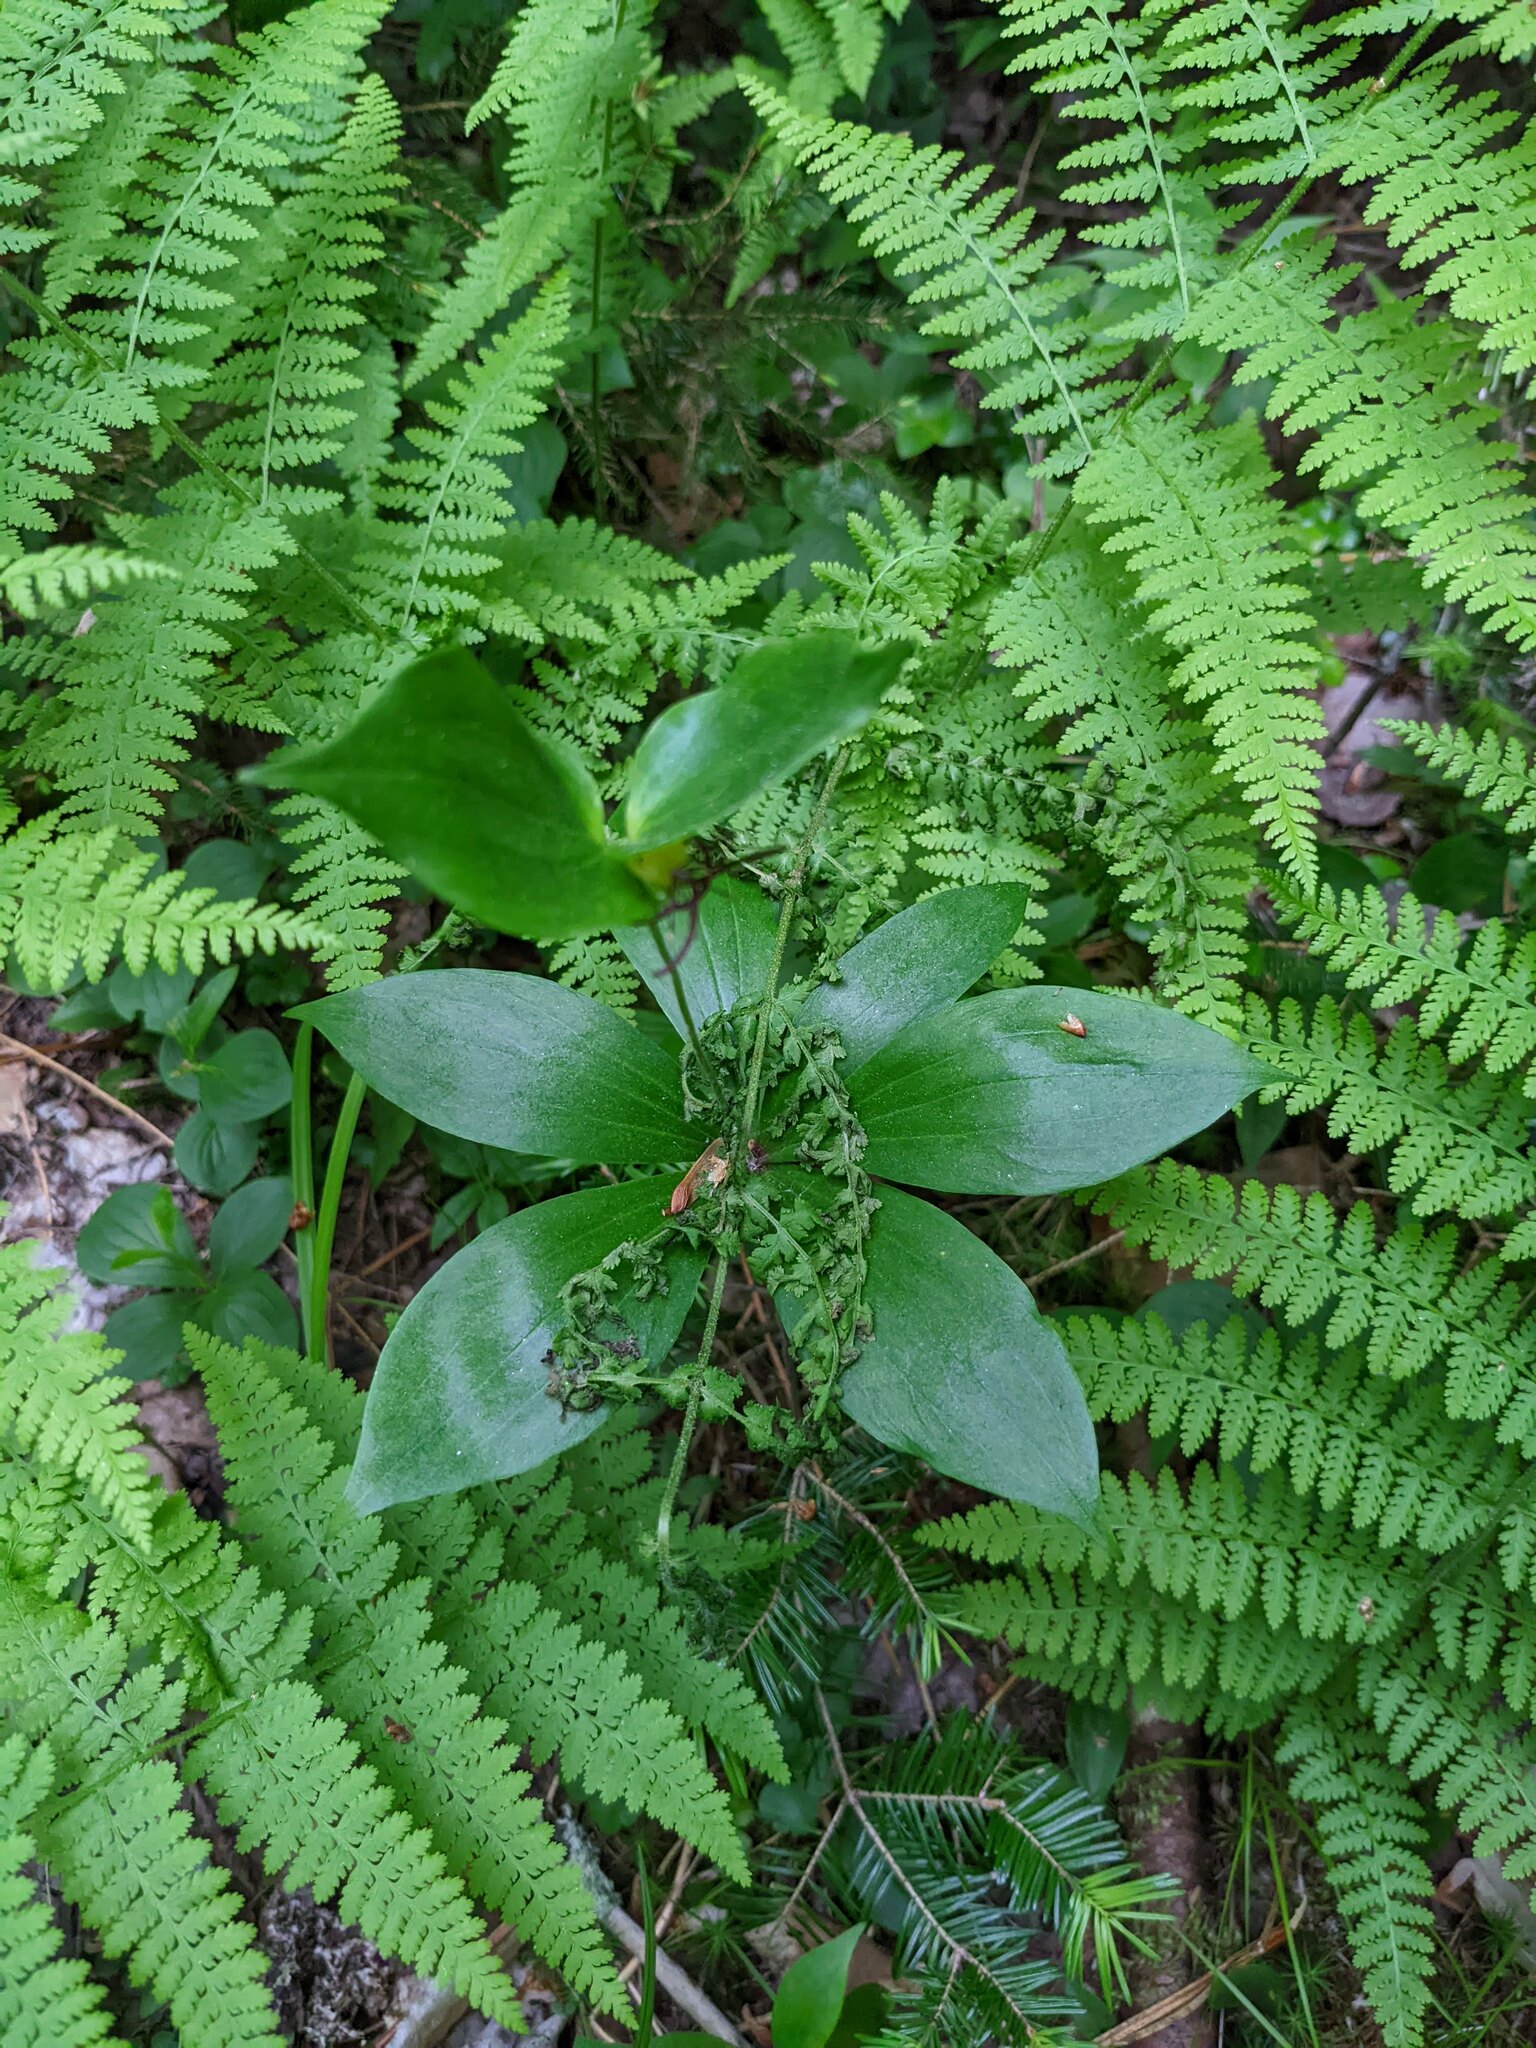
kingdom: Plantae
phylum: Tracheophyta
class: Liliopsida
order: Liliales
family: Liliaceae
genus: Medeola
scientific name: Medeola virginiana
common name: Indian cucumber-root
